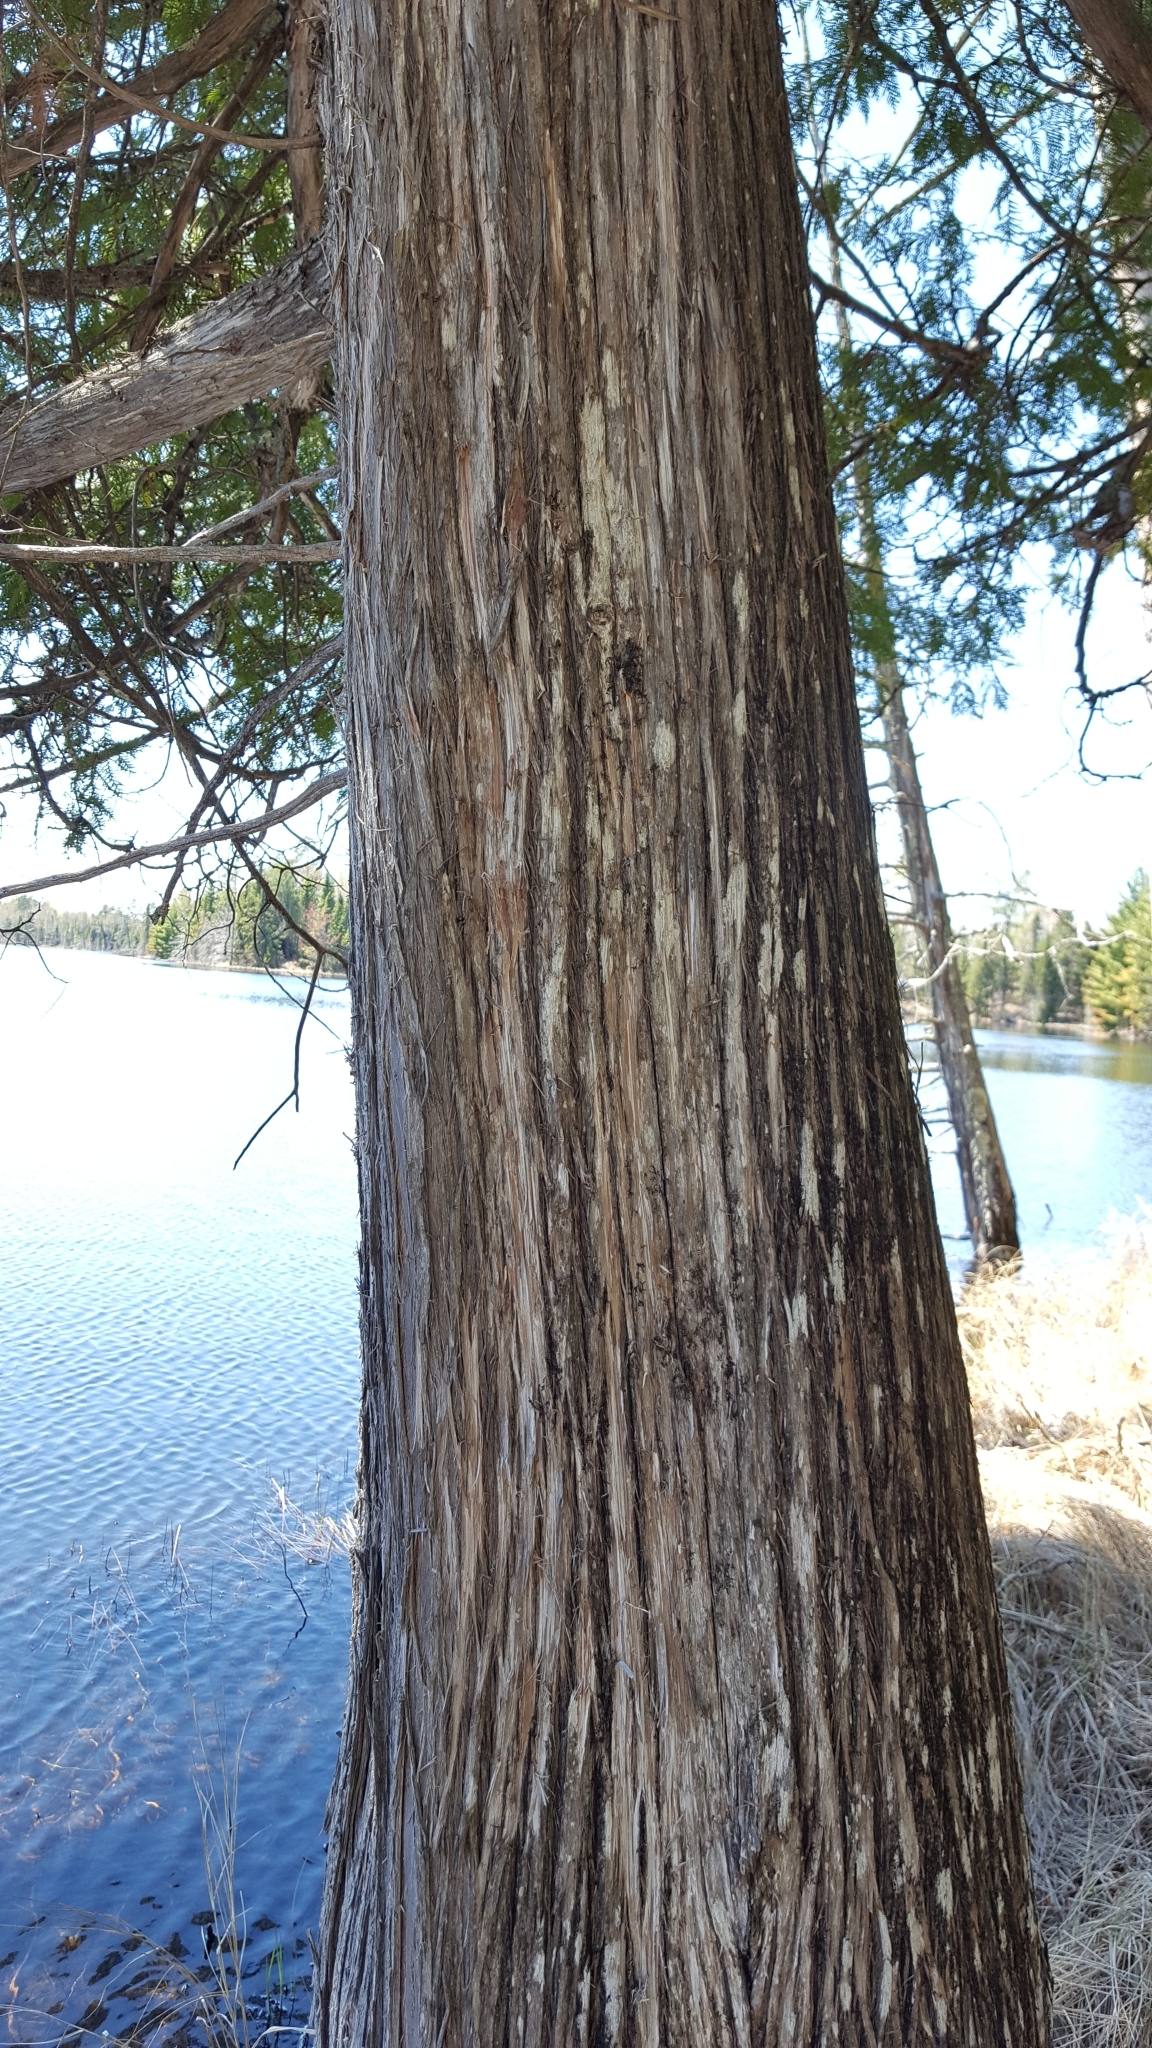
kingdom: Plantae
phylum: Tracheophyta
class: Pinopsida
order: Pinales
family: Cupressaceae
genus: Thuja
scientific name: Thuja occidentalis
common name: Northern white-cedar
